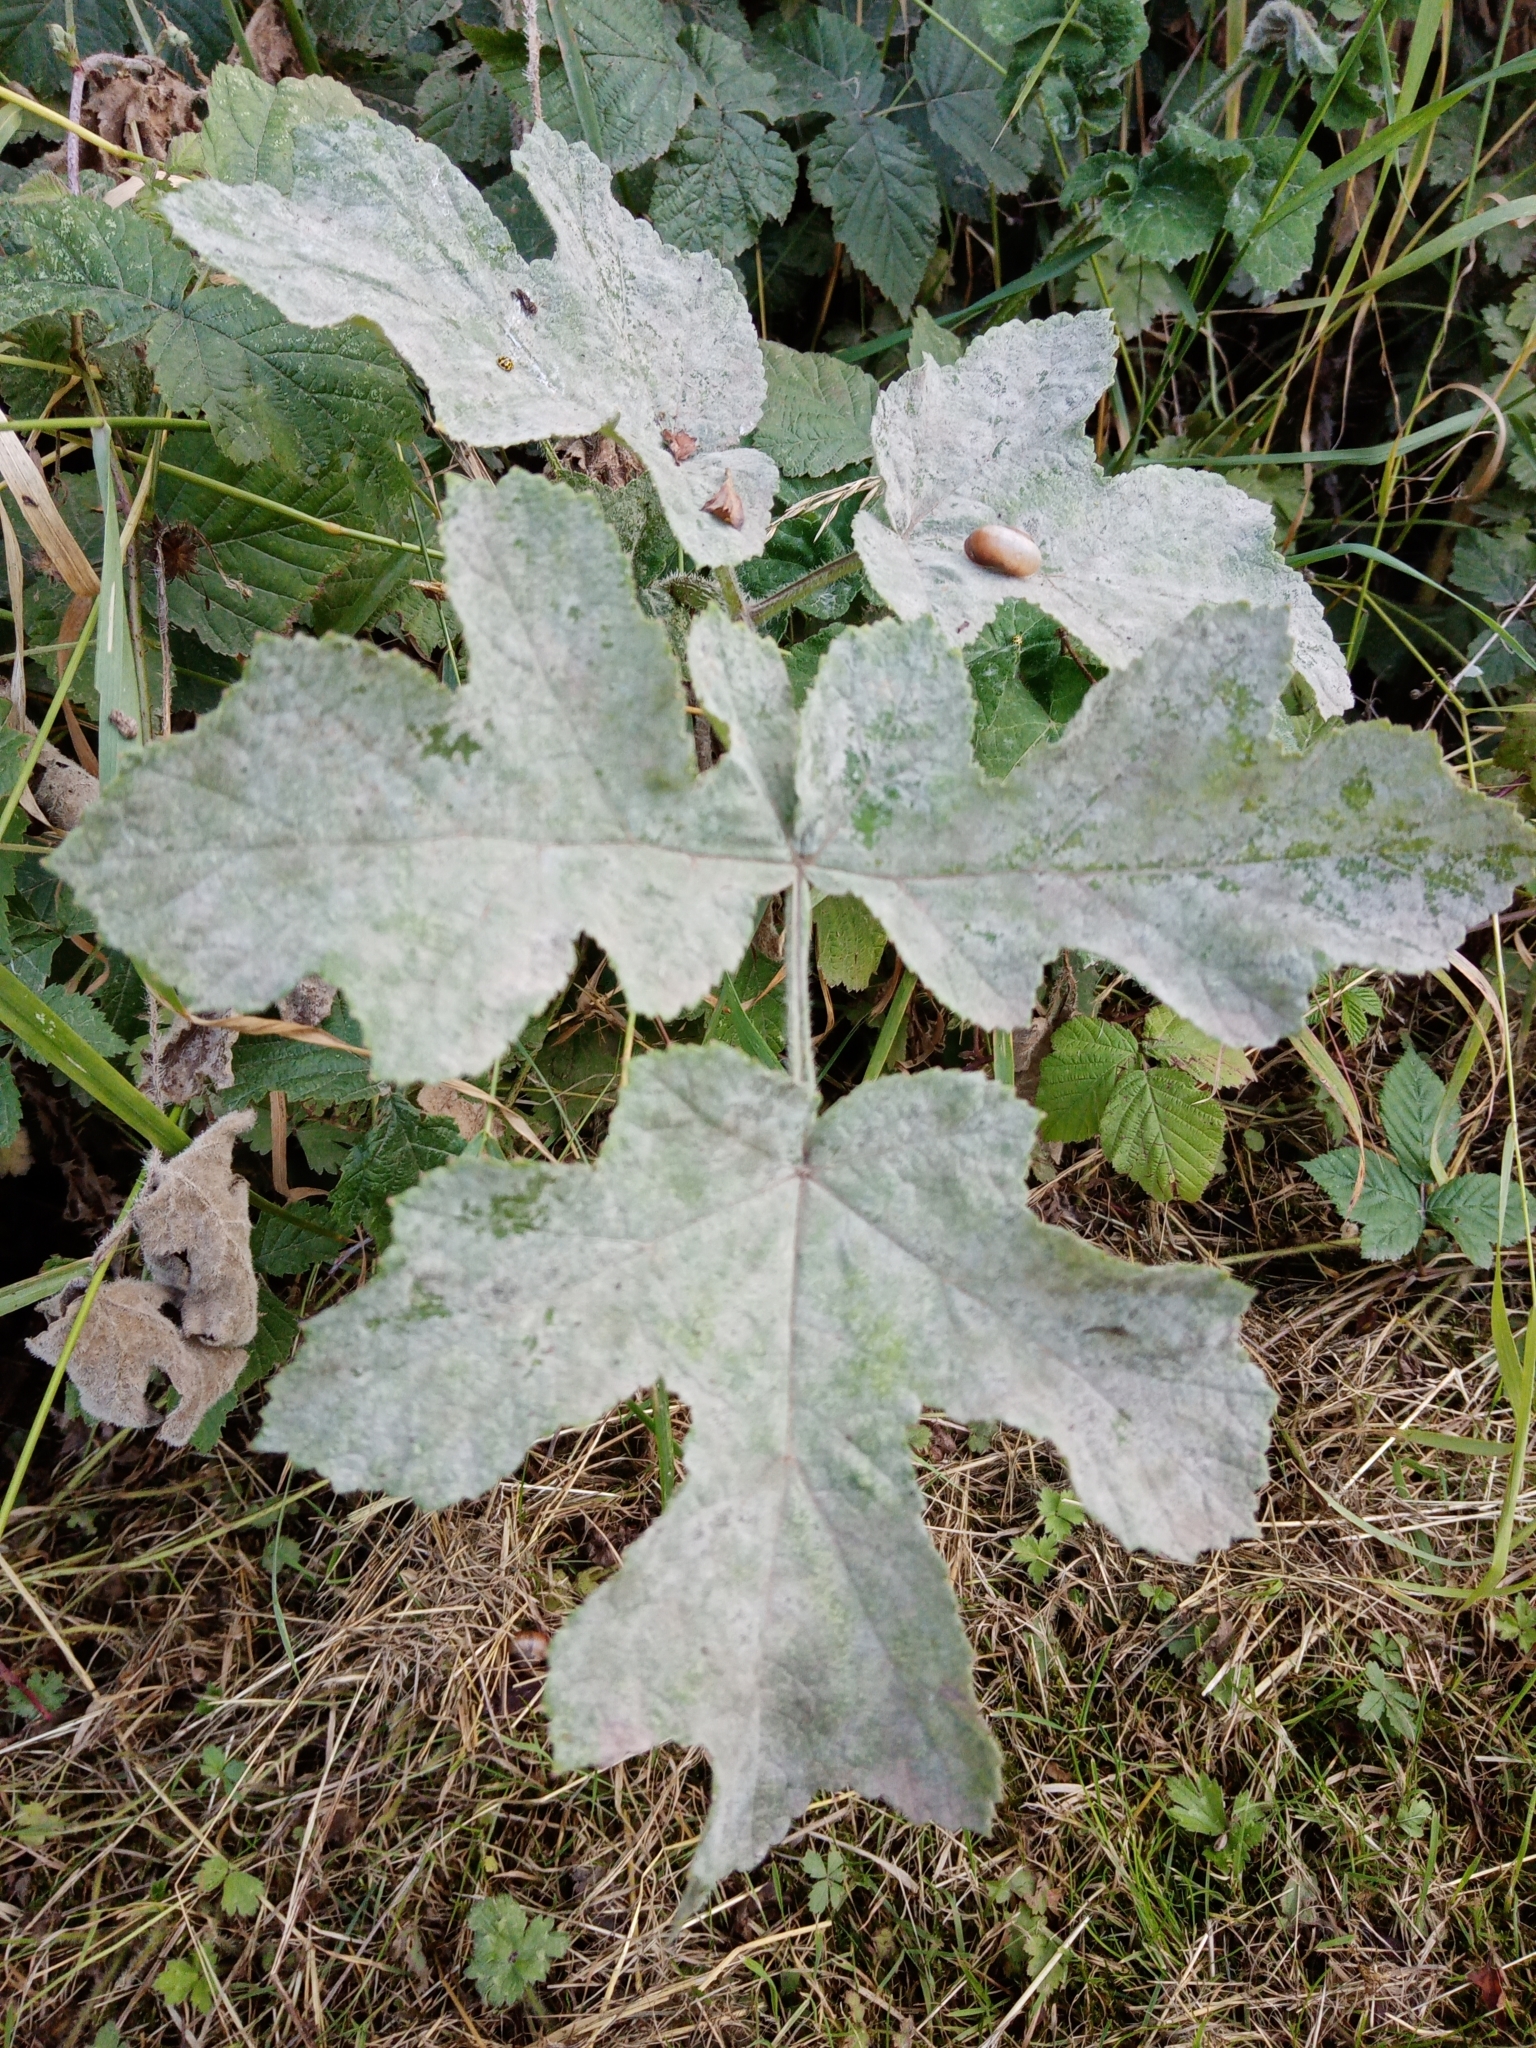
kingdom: Fungi
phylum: Ascomycota
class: Leotiomycetes
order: Helotiales
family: Erysiphaceae
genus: Erysiphe
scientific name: Erysiphe heraclei
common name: Umbellifer mildew
